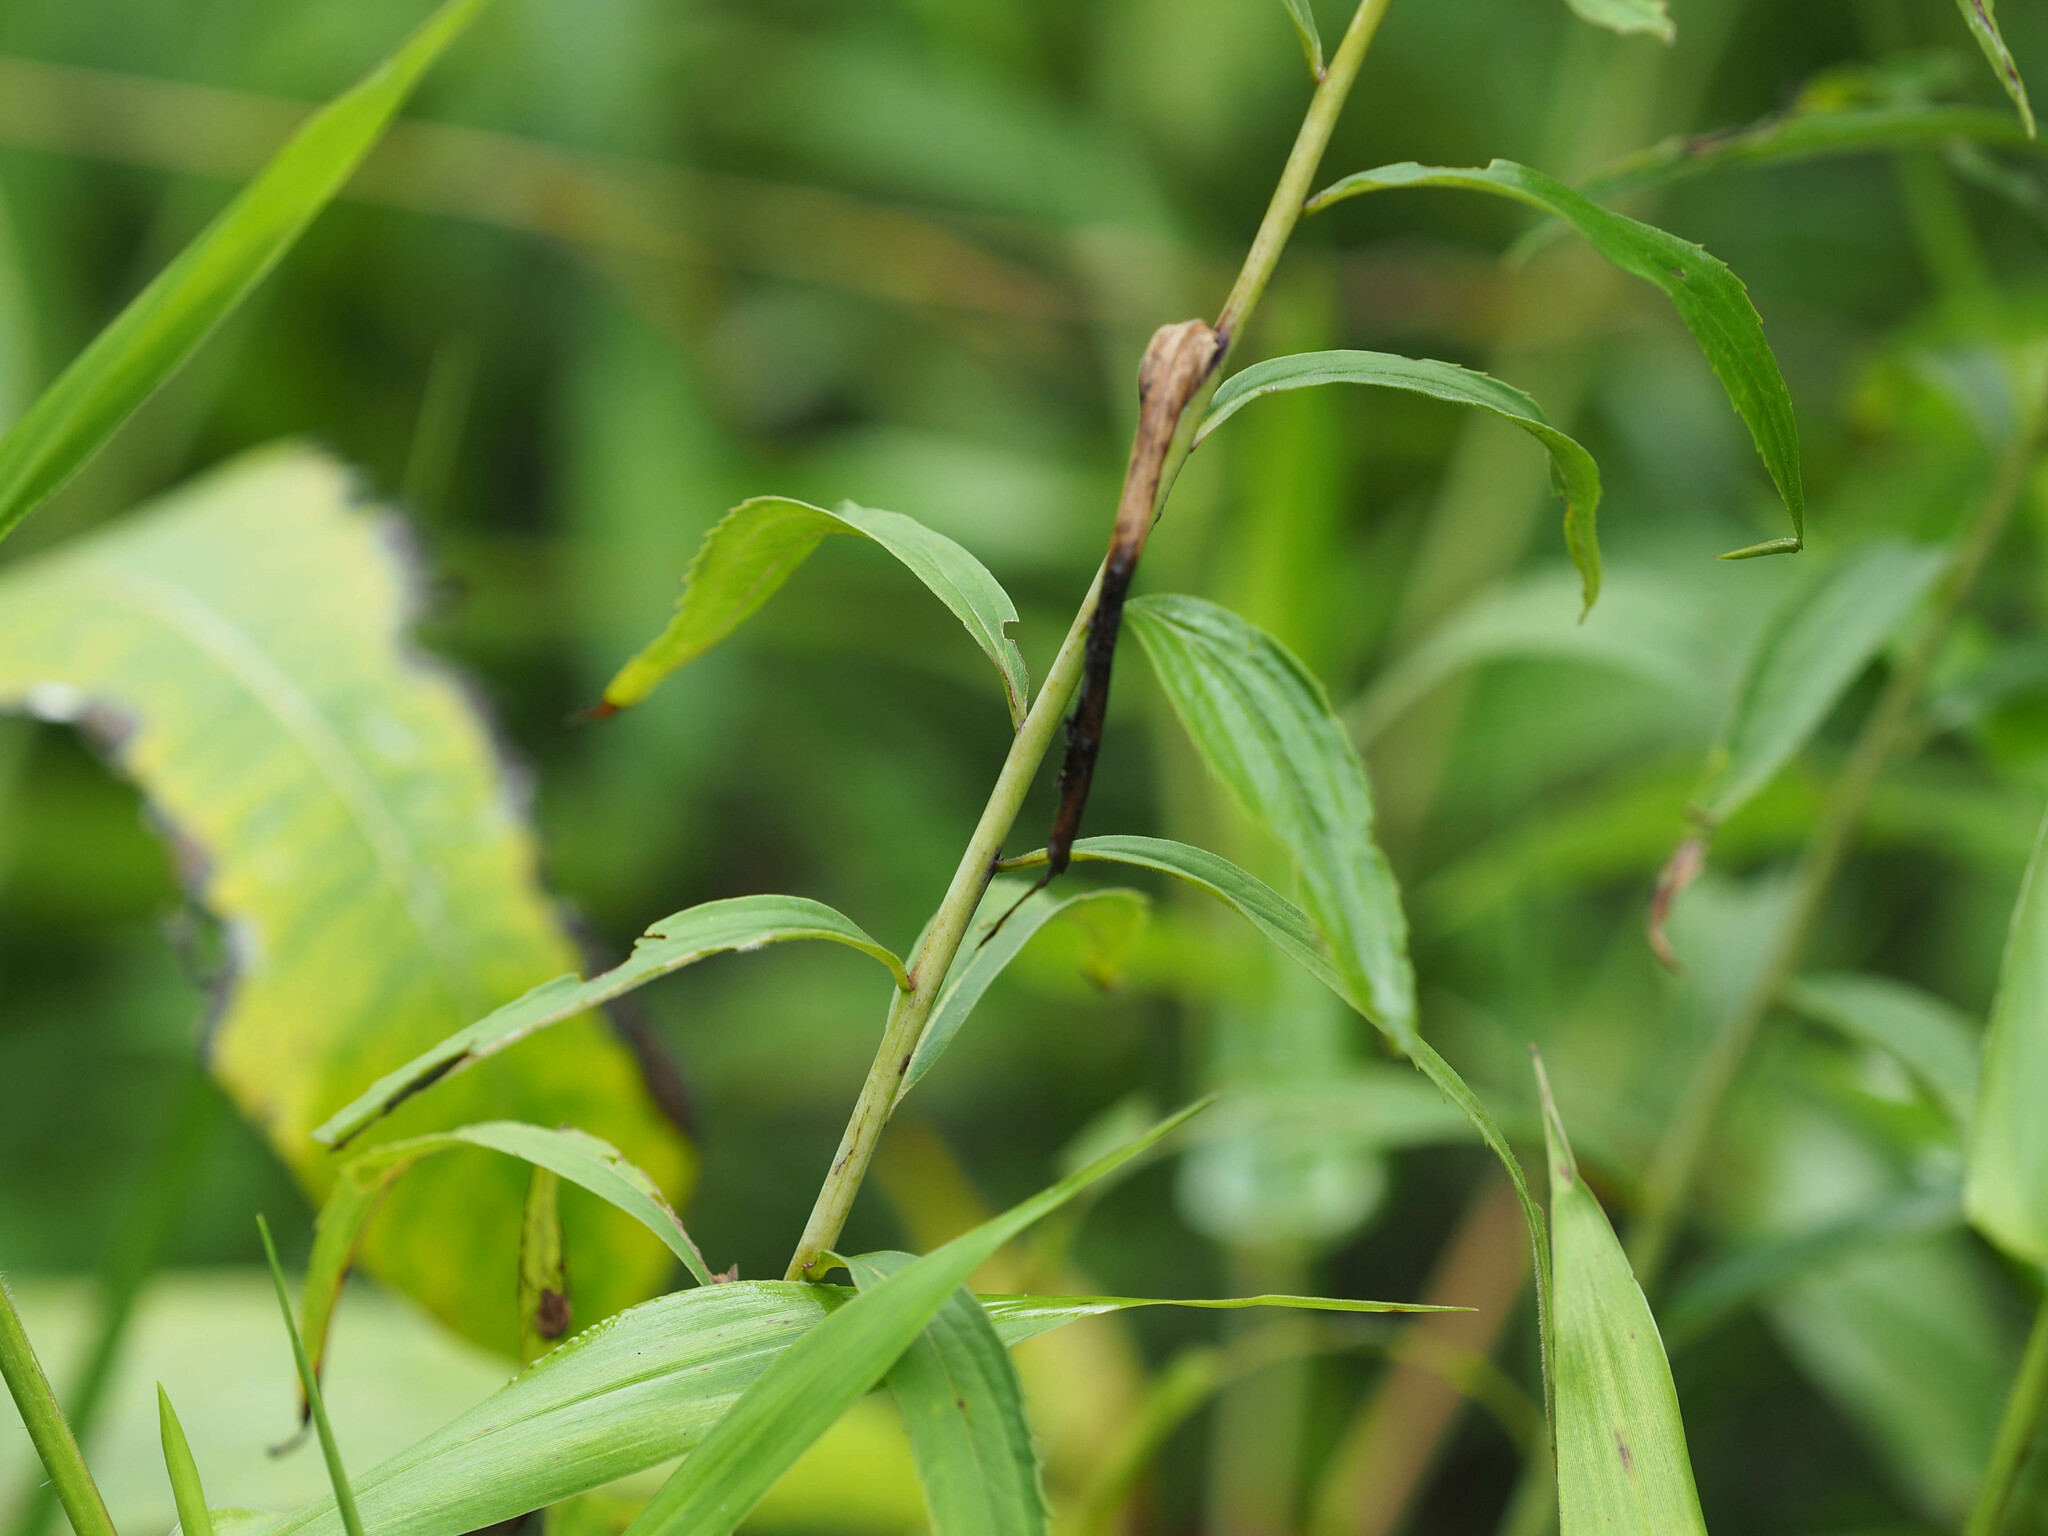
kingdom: Plantae
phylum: Tracheophyta
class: Magnoliopsida
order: Asterales
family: Asteraceae
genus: Solidago
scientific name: Solidago juncea
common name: Early goldenrod
